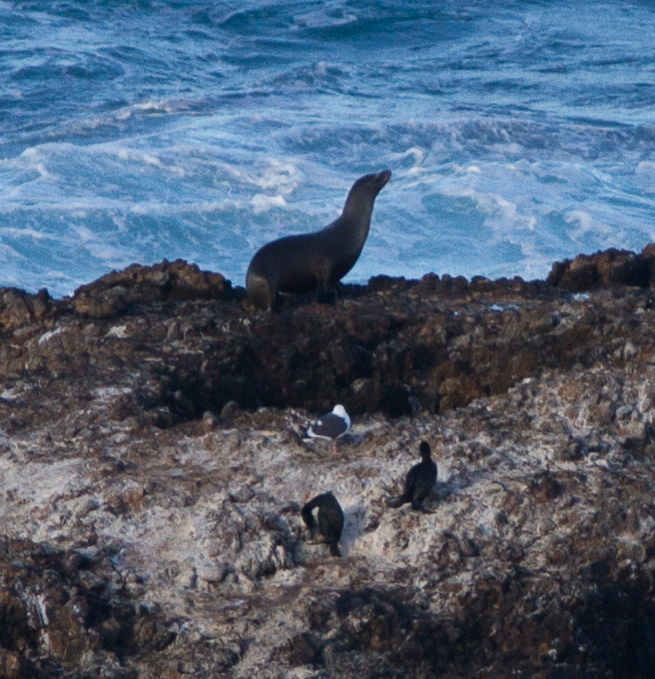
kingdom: Animalia
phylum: Chordata
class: Mammalia
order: Carnivora
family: Otariidae
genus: Zalophus
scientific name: Zalophus californianus
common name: California sea lion
